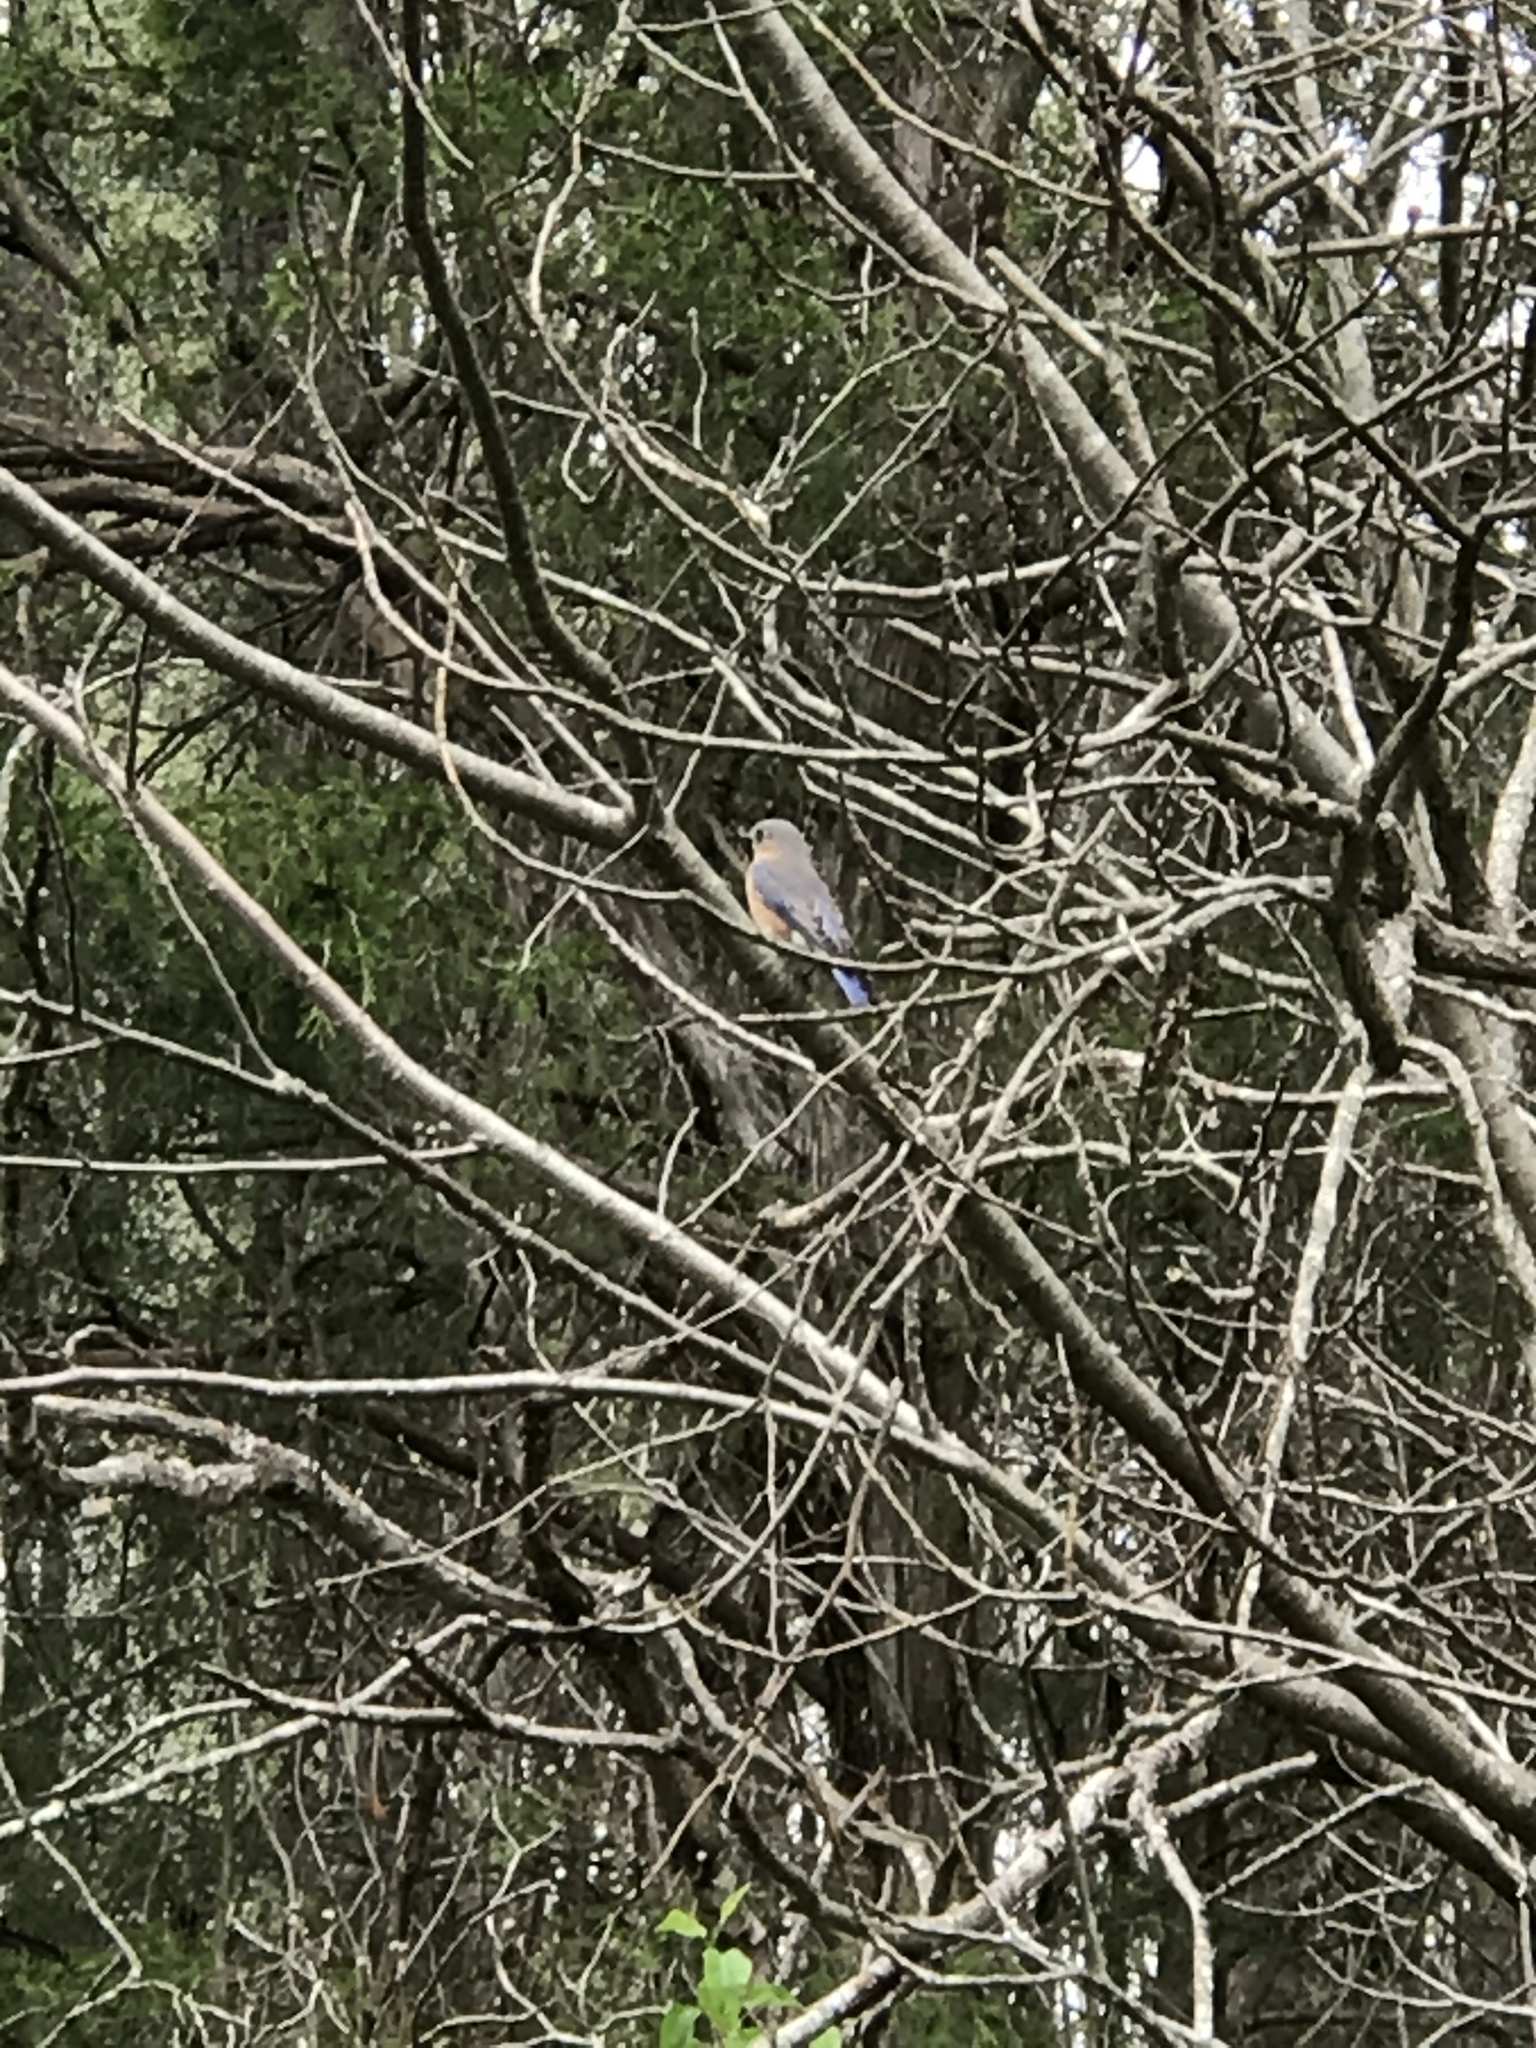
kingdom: Animalia
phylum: Chordata
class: Aves
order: Passeriformes
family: Turdidae
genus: Sialia
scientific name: Sialia sialis
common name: Eastern bluebird
